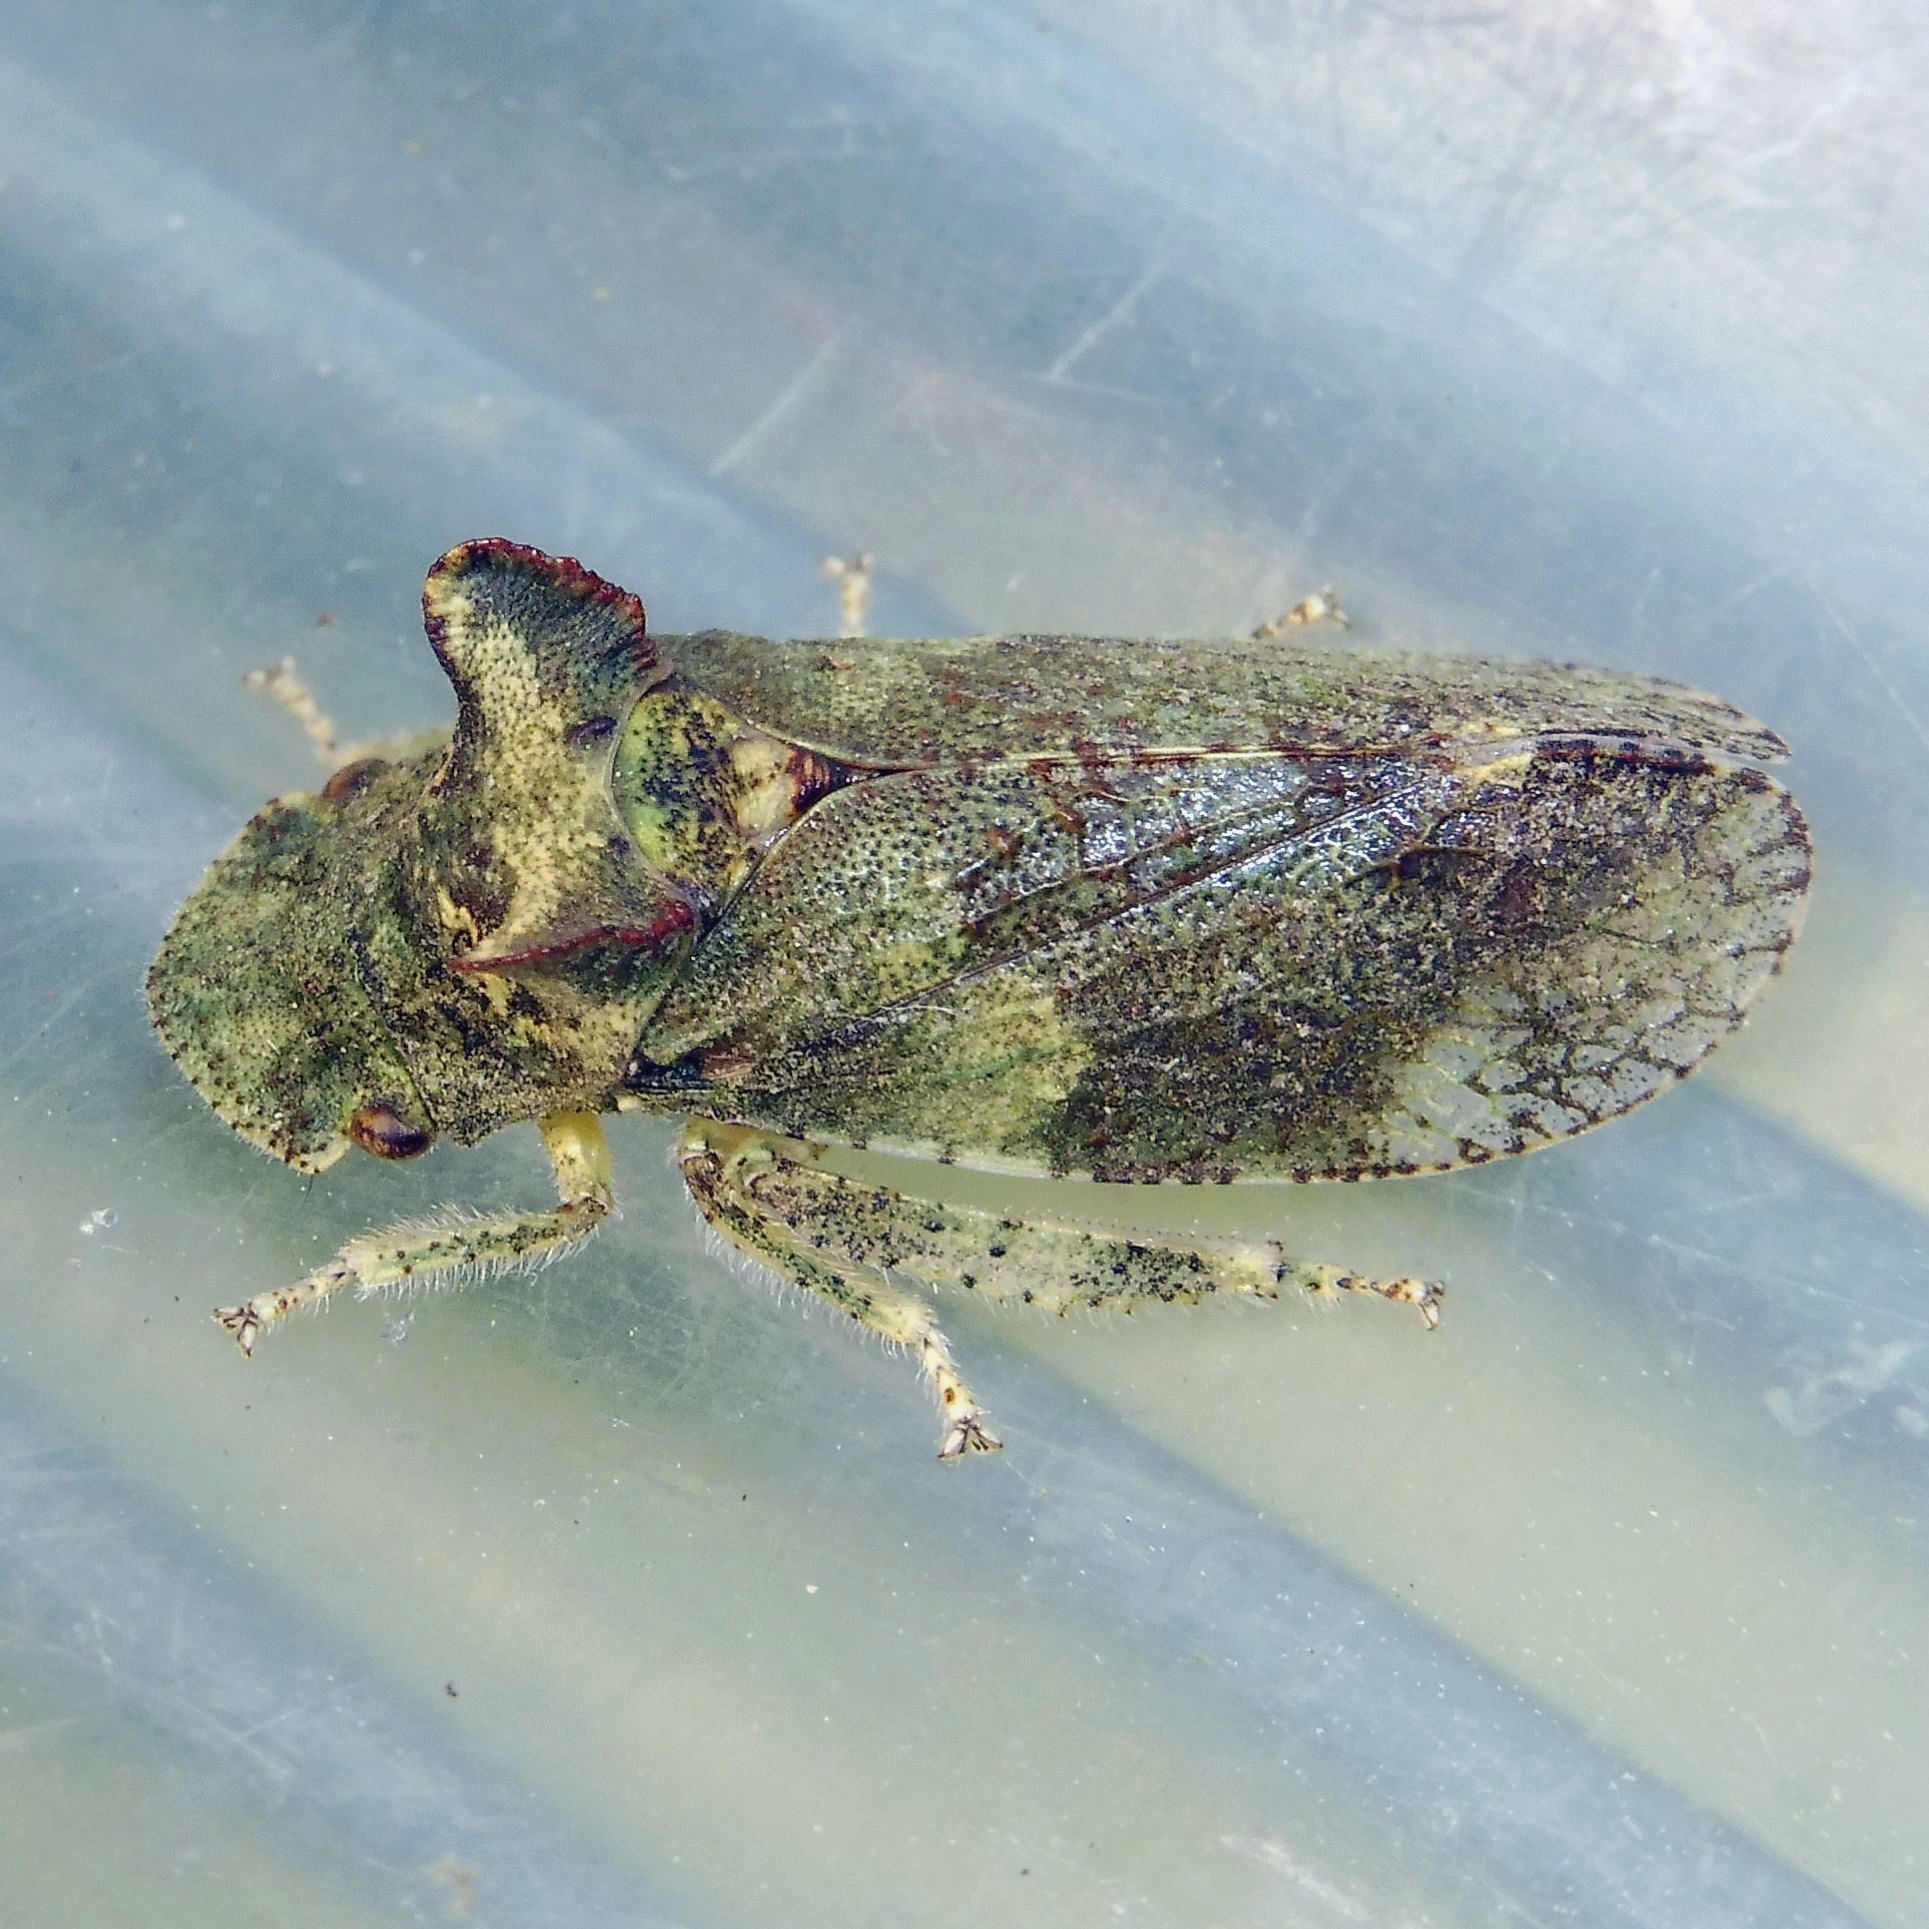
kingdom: Animalia
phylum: Arthropoda
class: Insecta
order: Hemiptera
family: Cicadellidae
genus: Ledra
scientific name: Ledra aurita
